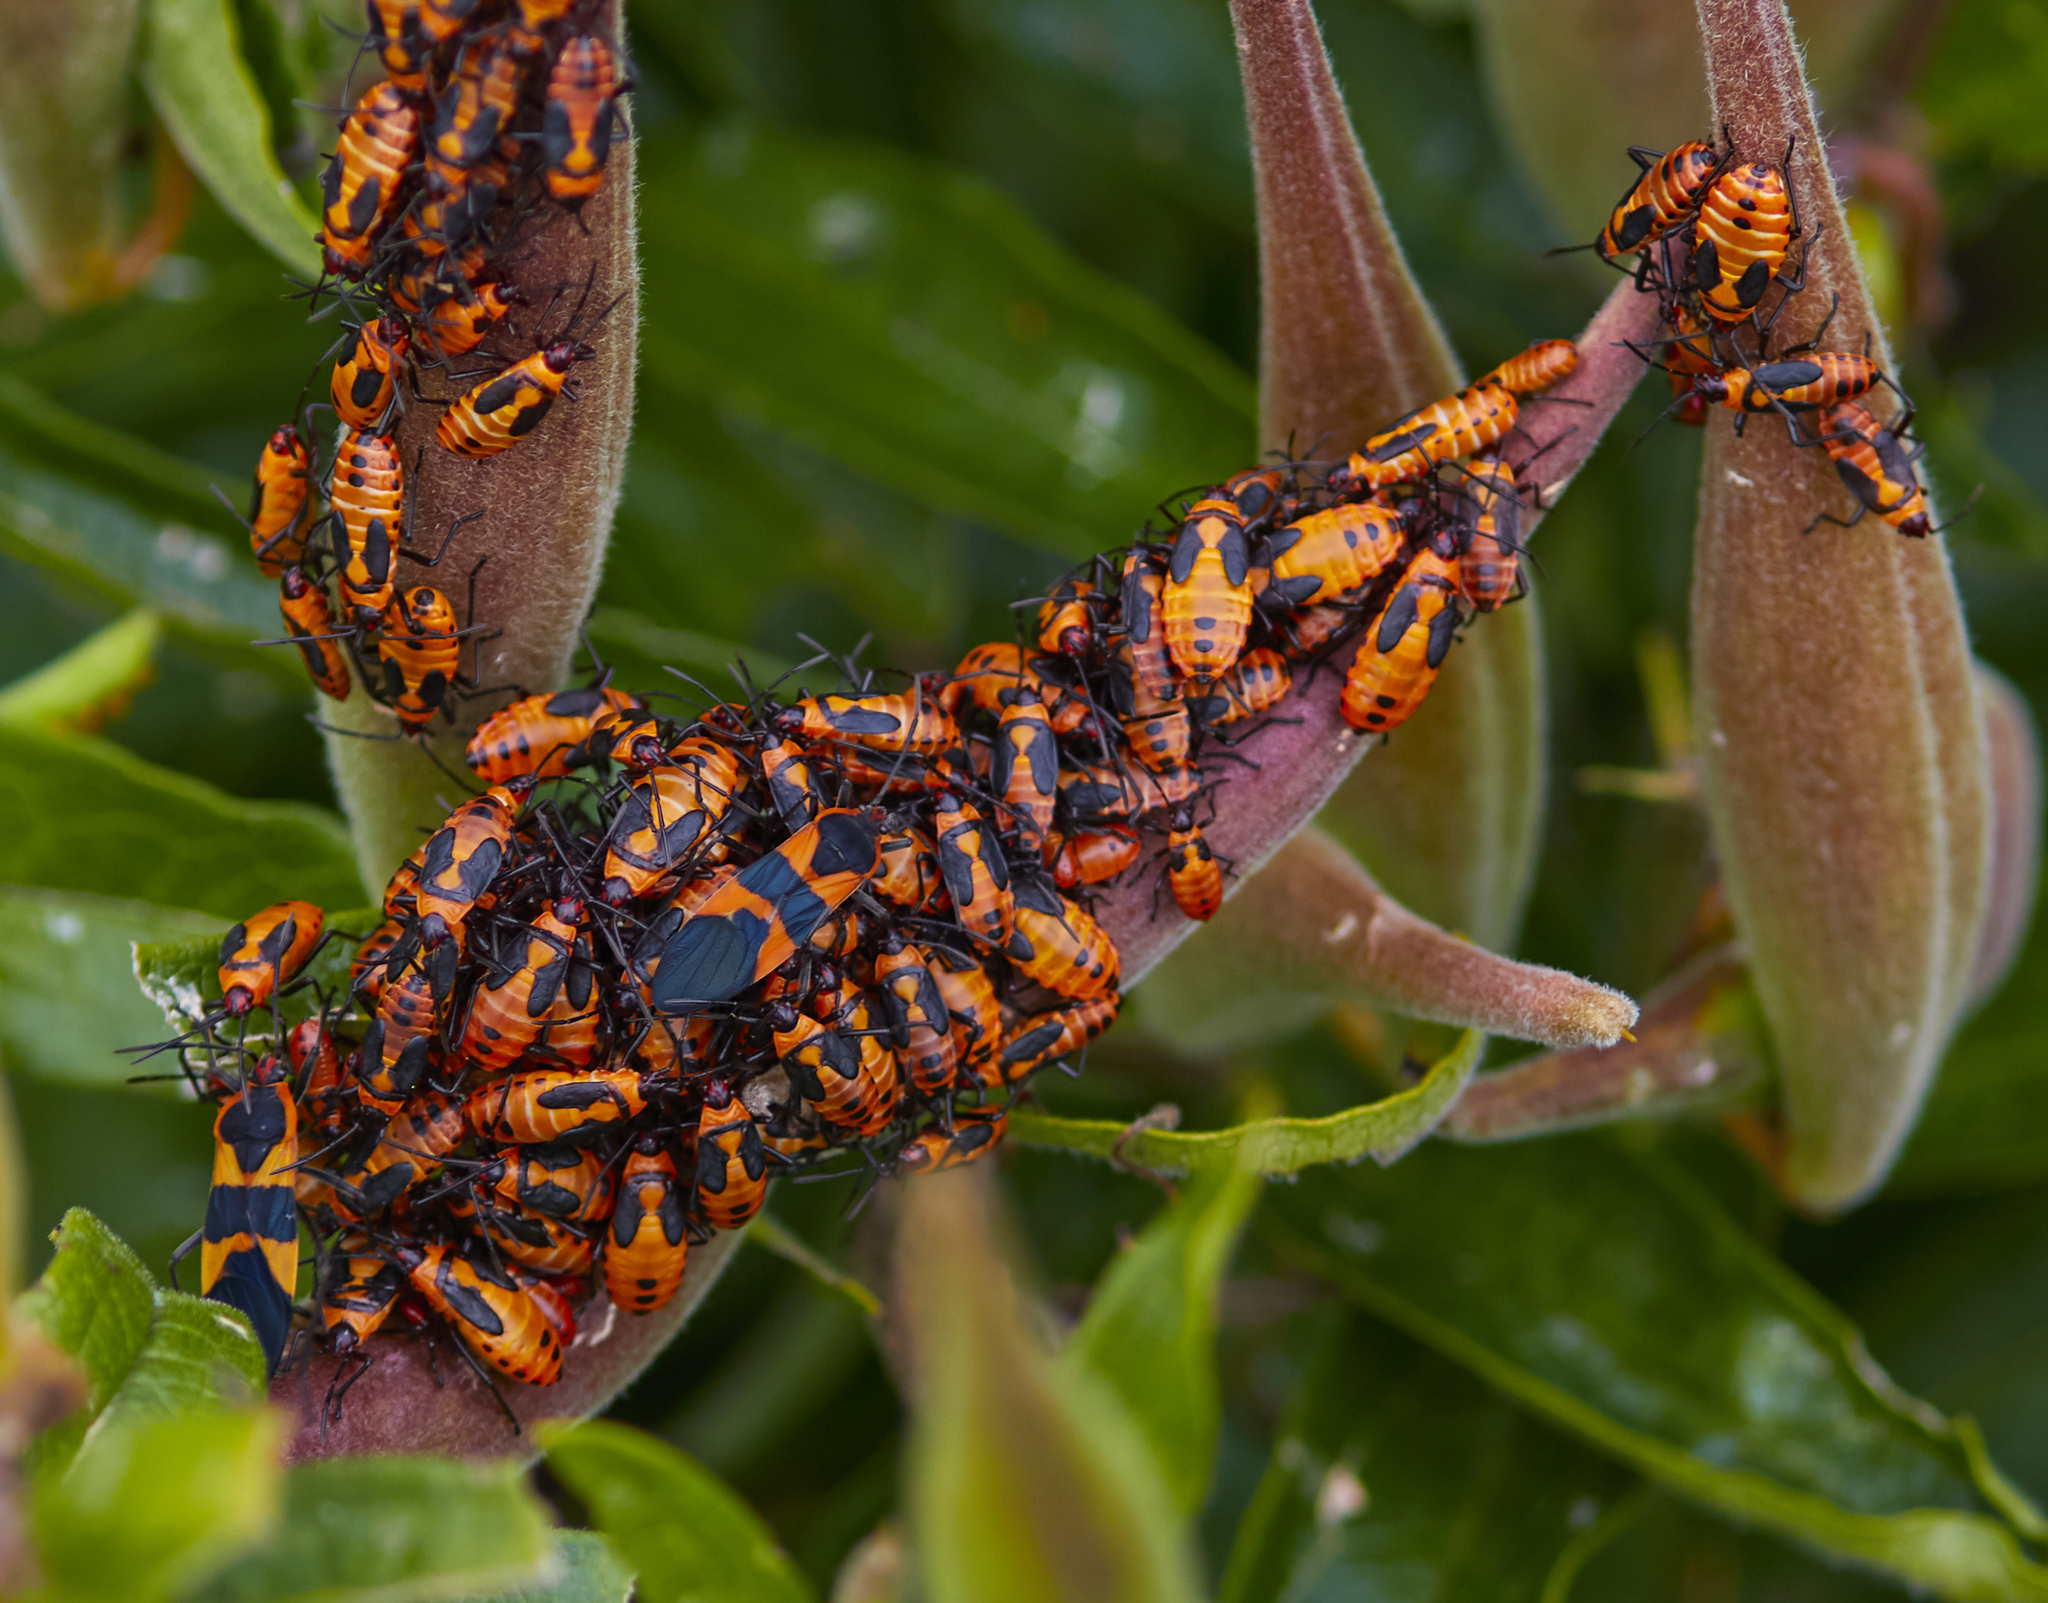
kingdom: Animalia
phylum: Arthropoda
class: Insecta
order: Hemiptera
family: Lygaeidae
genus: Oncopeltus
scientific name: Oncopeltus fasciatus
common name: Large milkweed bug
